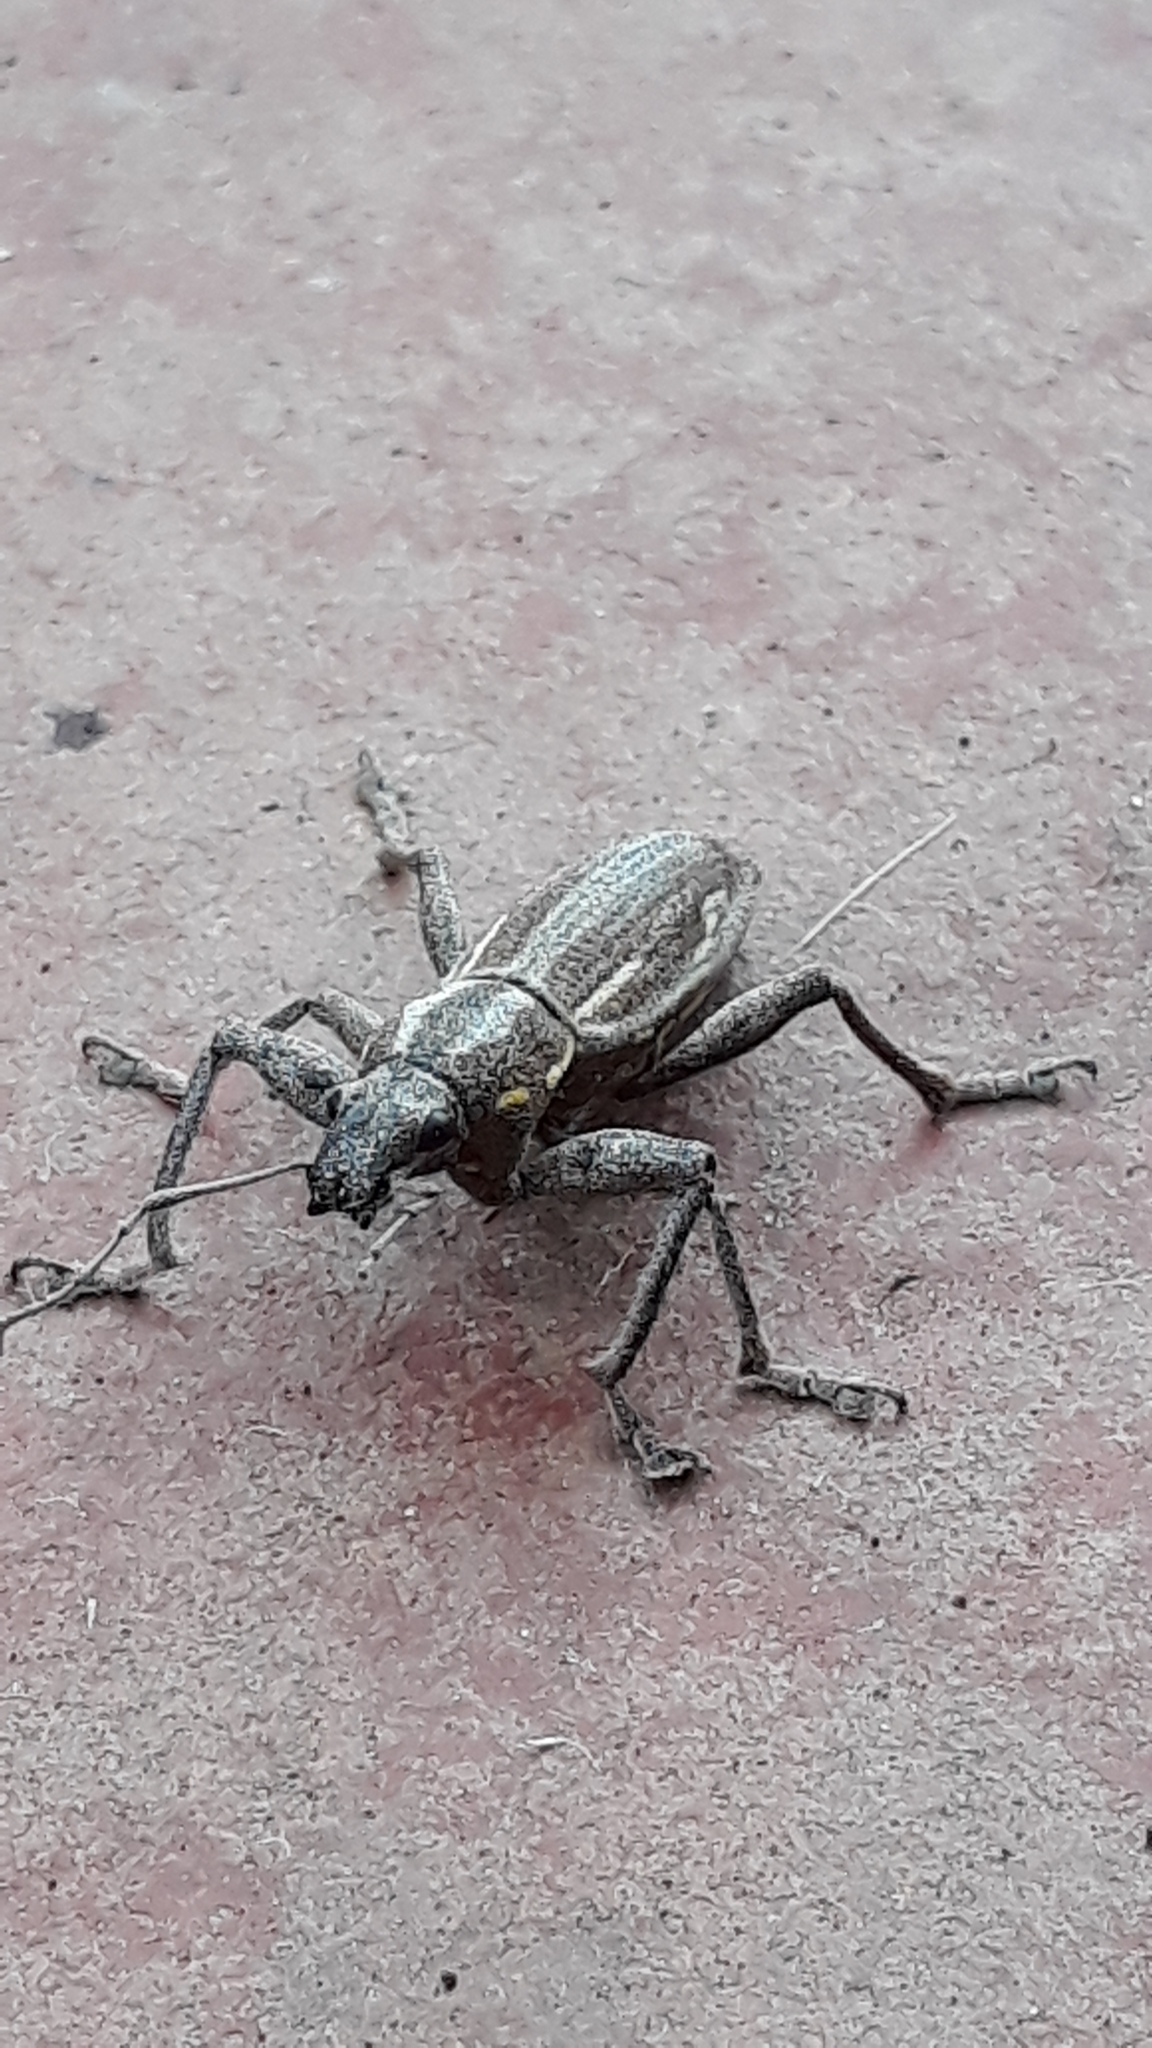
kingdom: Animalia
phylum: Arthropoda
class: Insecta
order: Coleoptera
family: Curculionidae
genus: Naupactus
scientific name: Naupactus xanthographus
